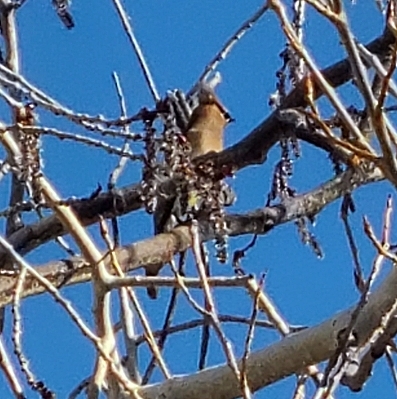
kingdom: Animalia
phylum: Chordata
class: Aves
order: Passeriformes
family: Bombycillidae
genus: Bombycilla
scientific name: Bombycilla cedrorum
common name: Cedar waxwing
